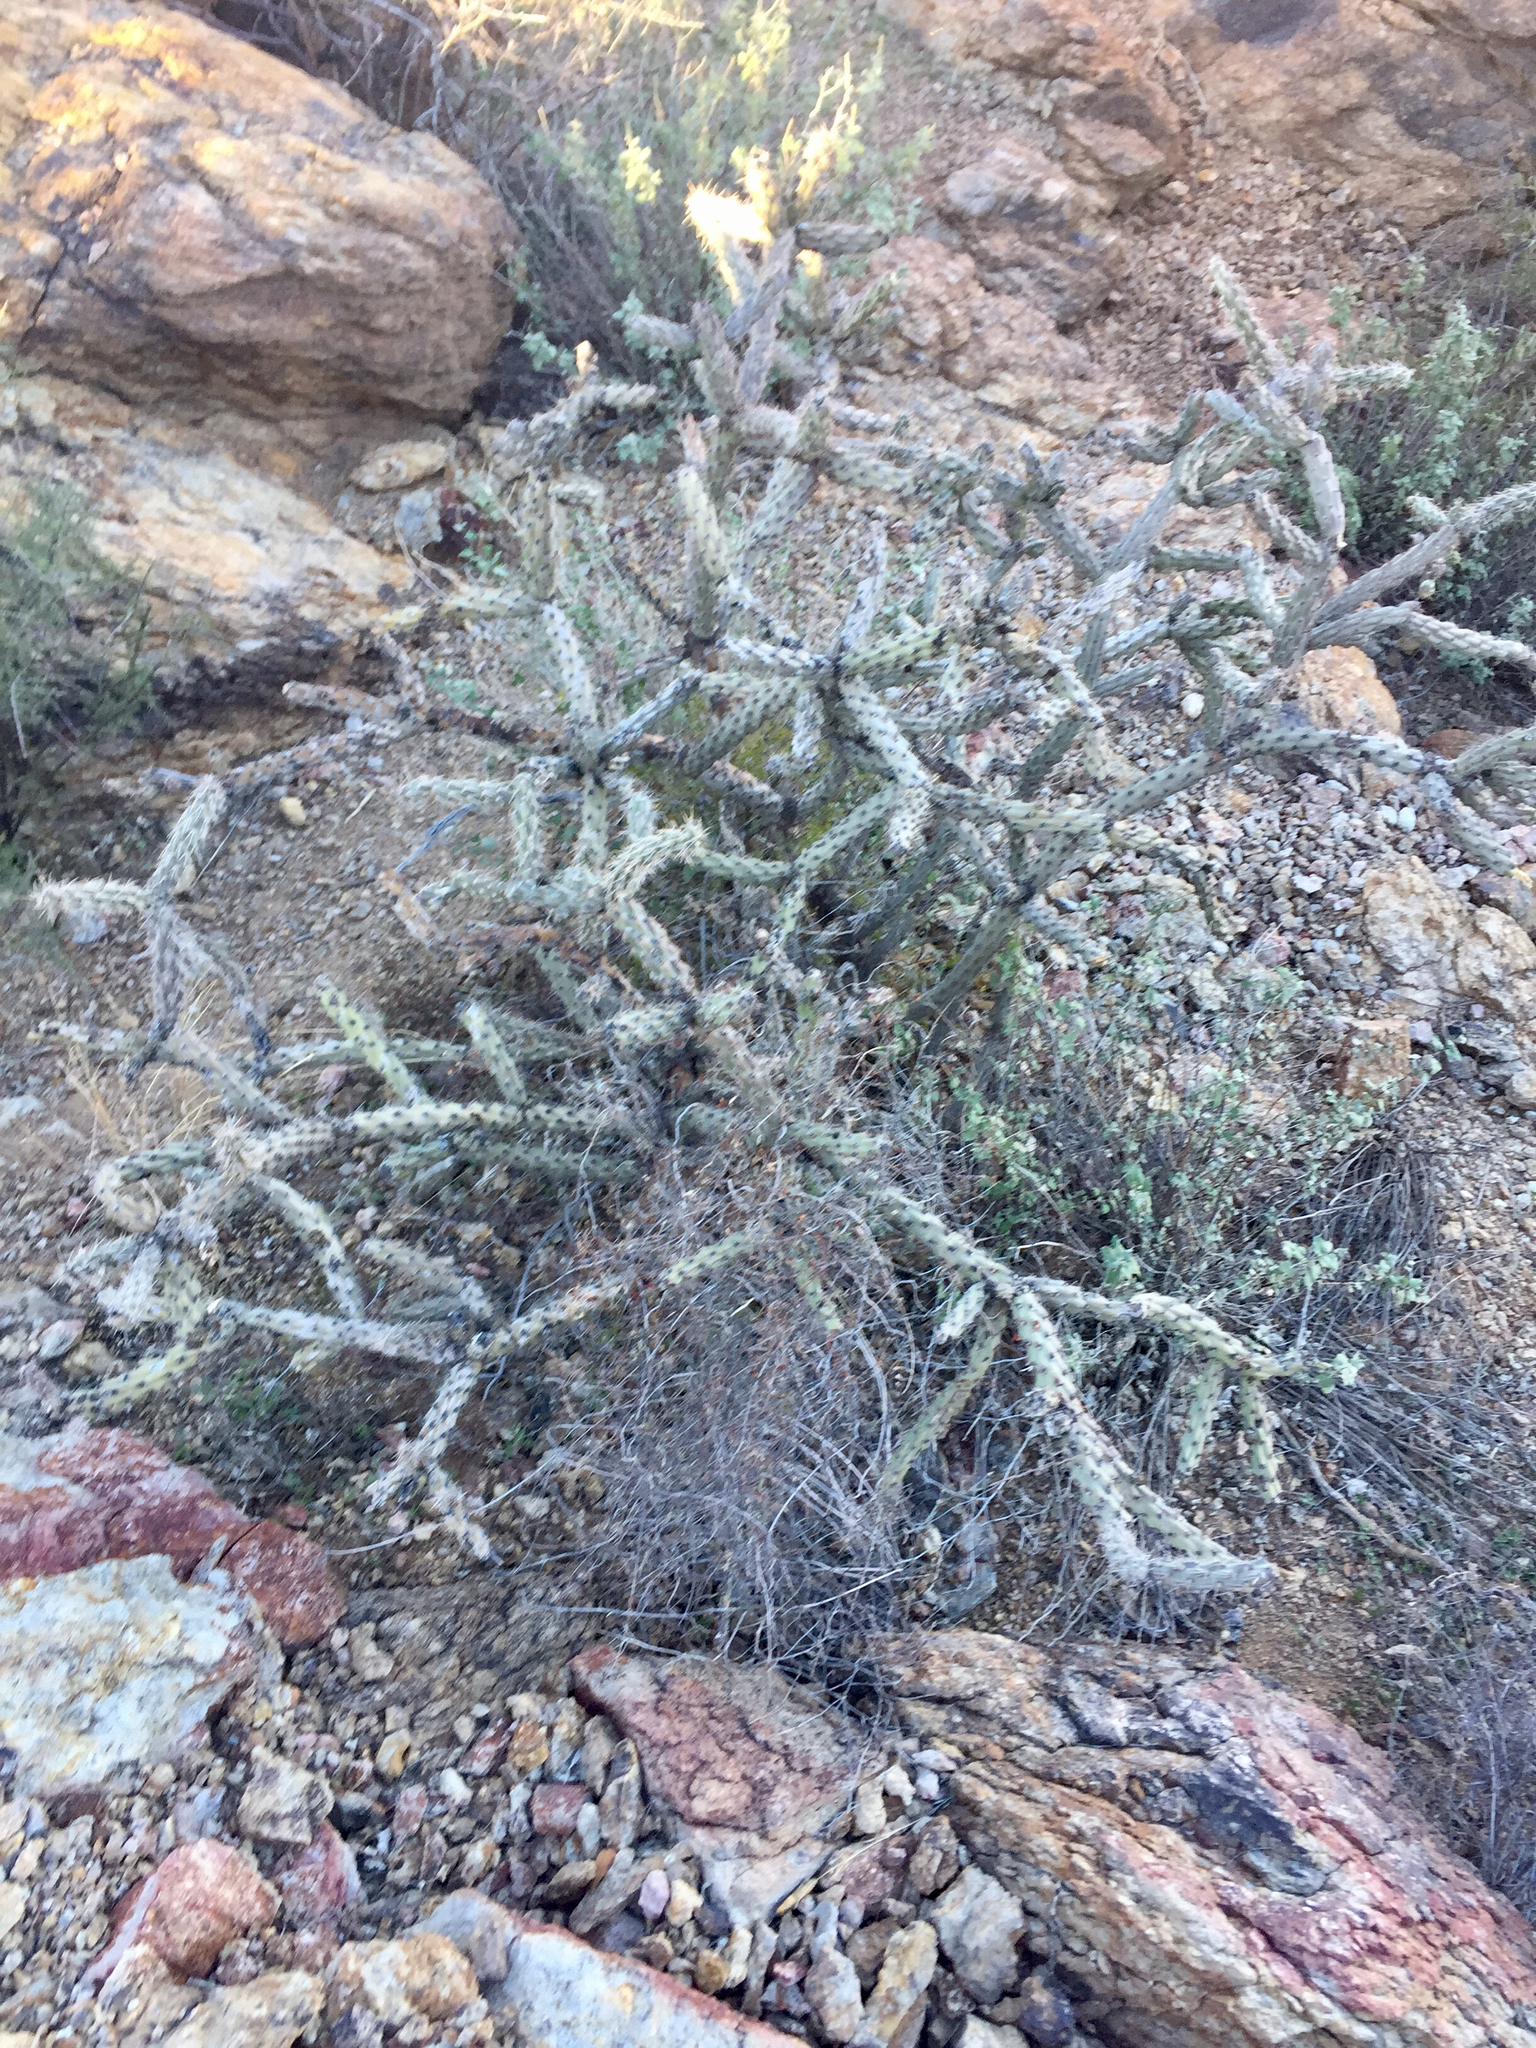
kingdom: Plantae
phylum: Tracheophyta
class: Magnoliopsida
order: Caryophyllales
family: Cactaceae
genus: Cylindropuntia
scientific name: Cylindropuntia acanthocarpa
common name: Buckhorn cholla
